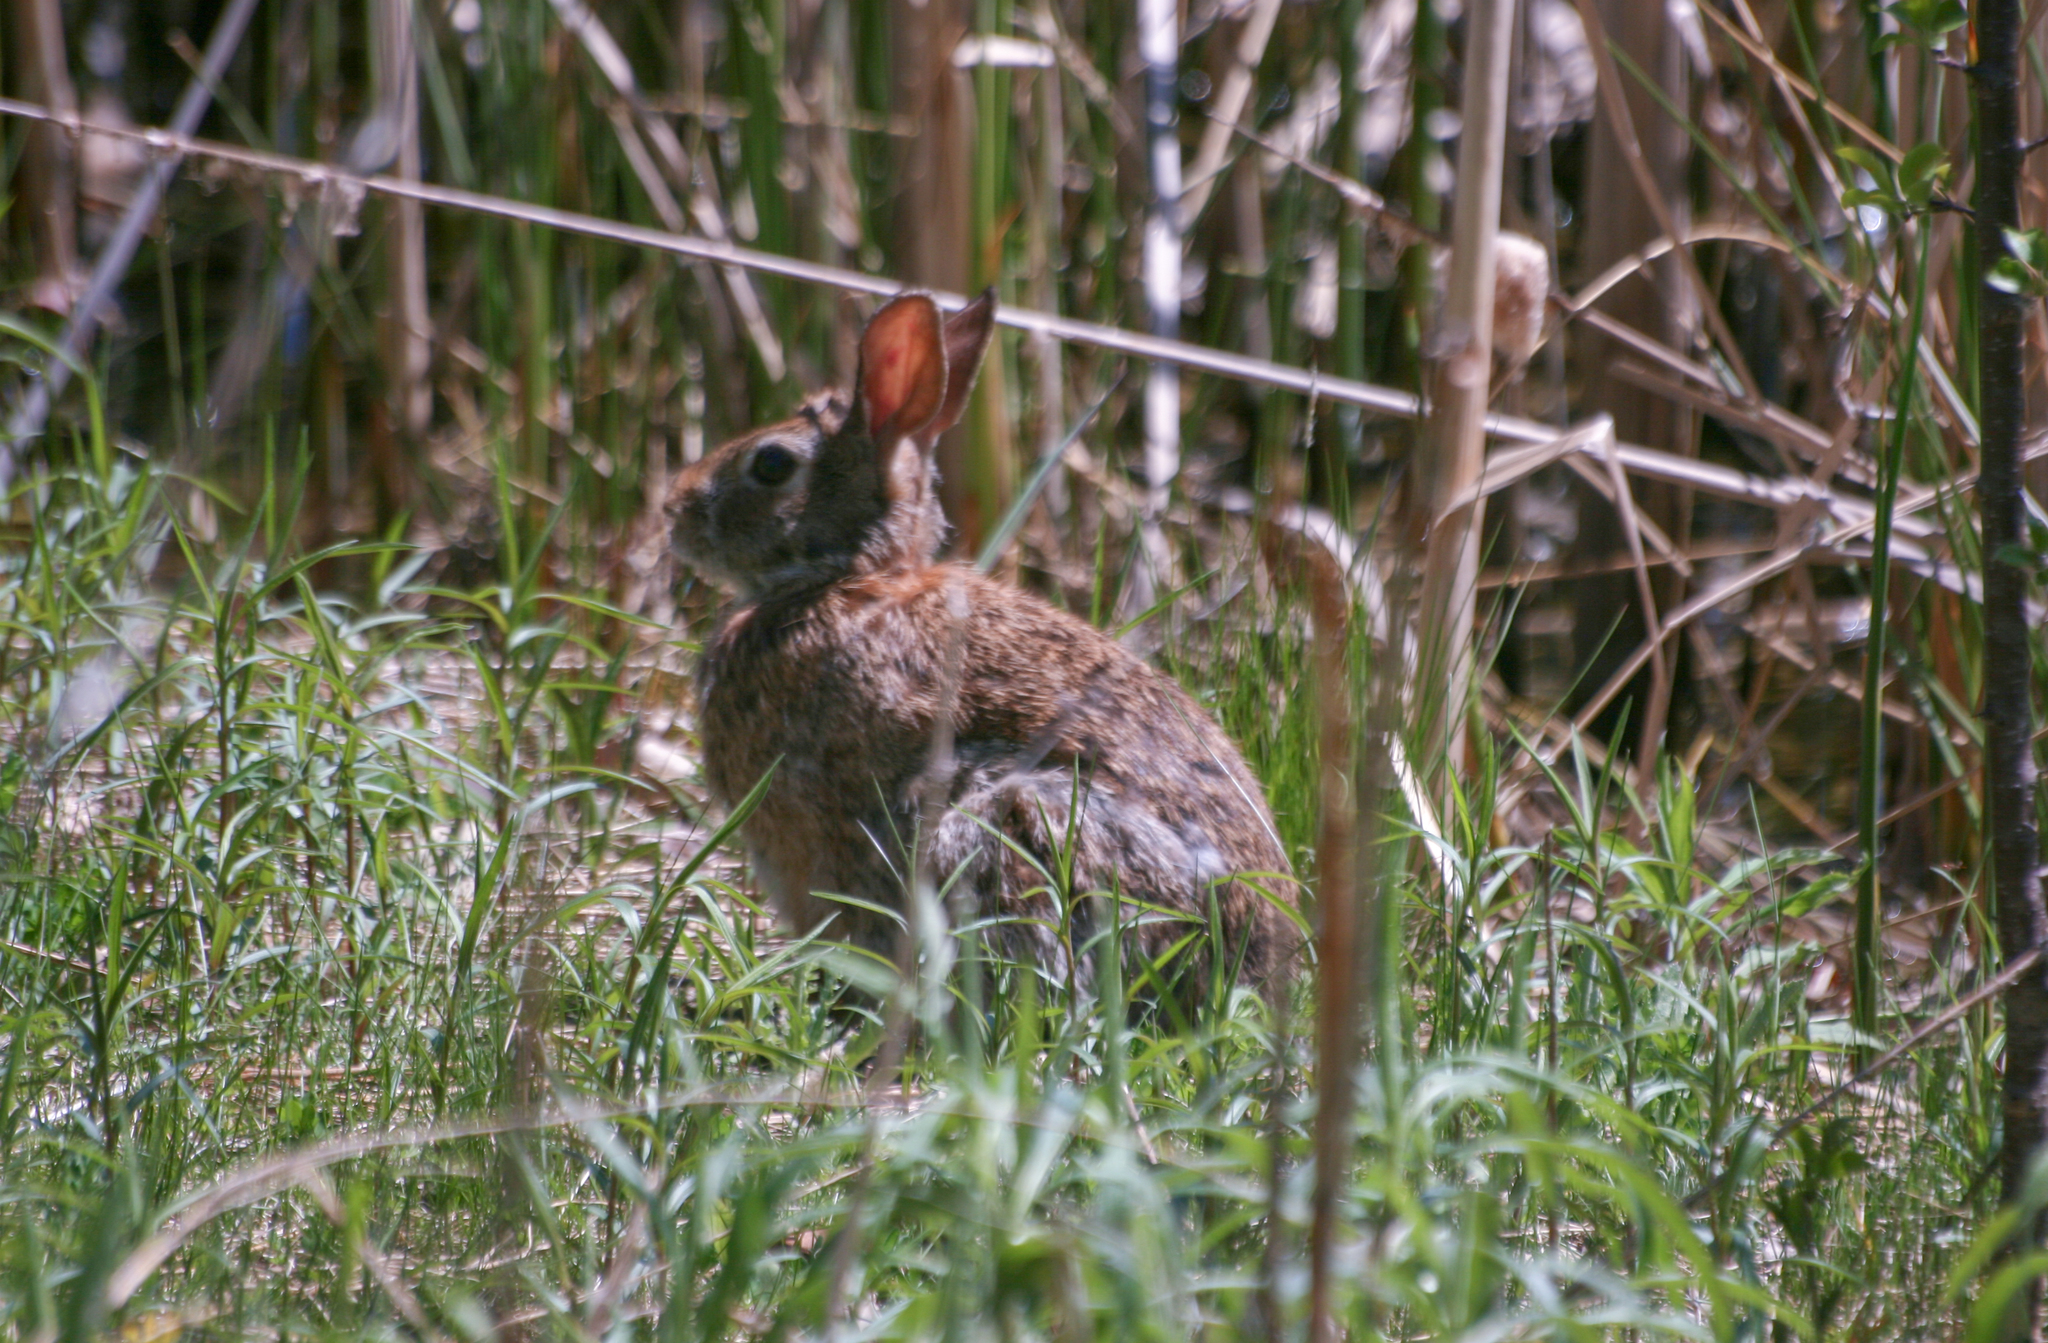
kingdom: Animalia
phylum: Chordata
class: Mammalia
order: Lagomorpha
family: Leporidae
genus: Sylvilagus
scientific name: Sylvilagus floridanus
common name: Eastern cottontail
